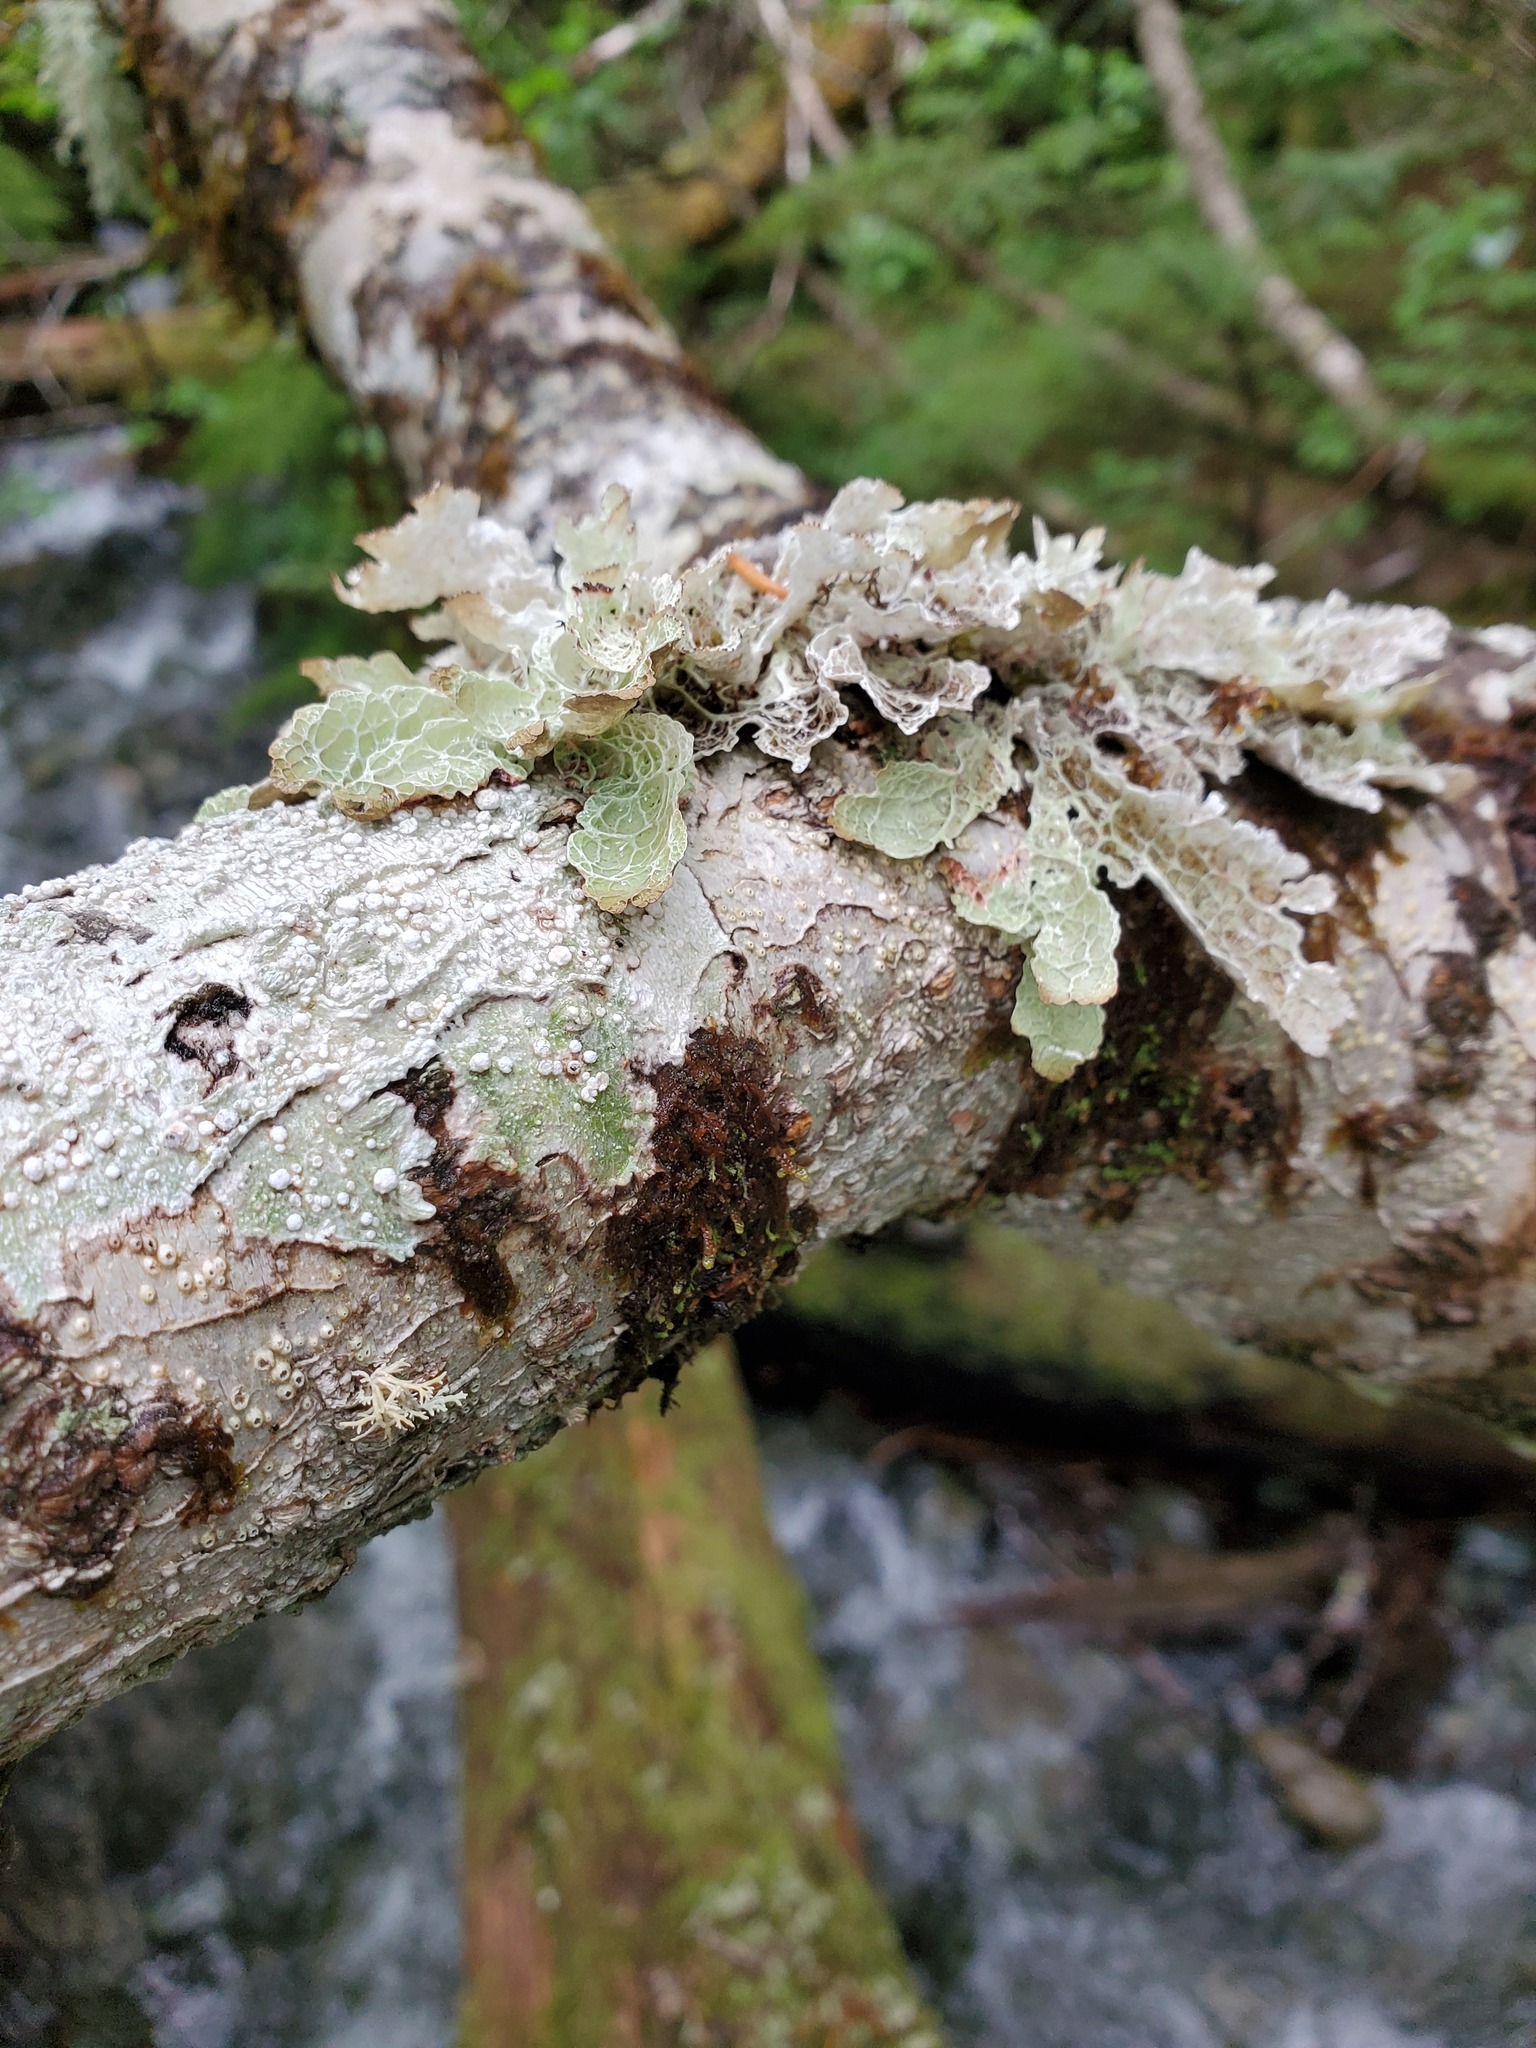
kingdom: Fungi
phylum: Ascomycota
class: Lecanoromycetes
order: Lecanorales
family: Parmeliaceae
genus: Platismatia
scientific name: Platismatia norvegica
